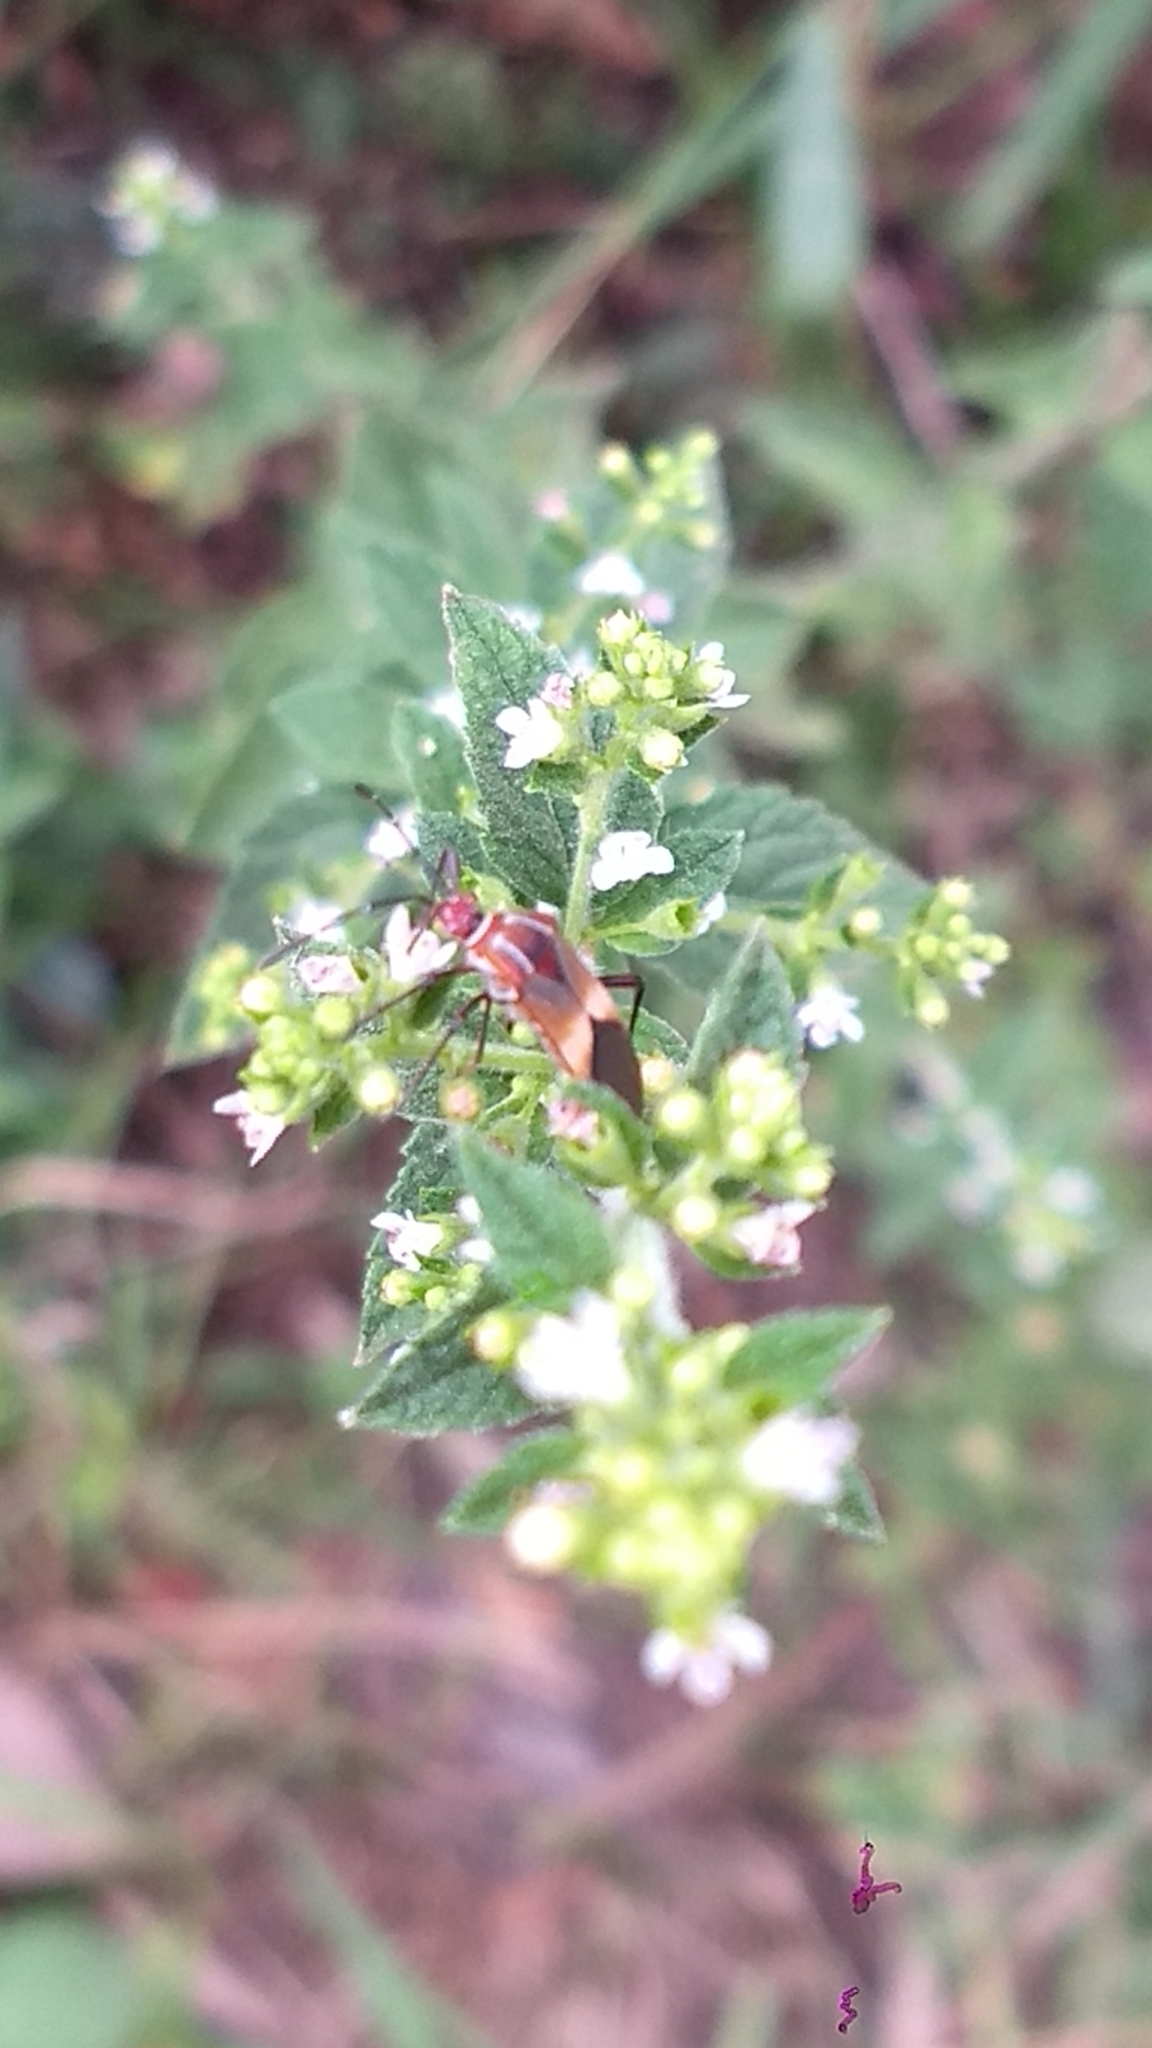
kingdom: Animalia
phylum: Arthropoda
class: Insecta
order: Hemiptera
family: Coreidae
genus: Hypselonotus
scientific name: Hypselonotus interruptus
